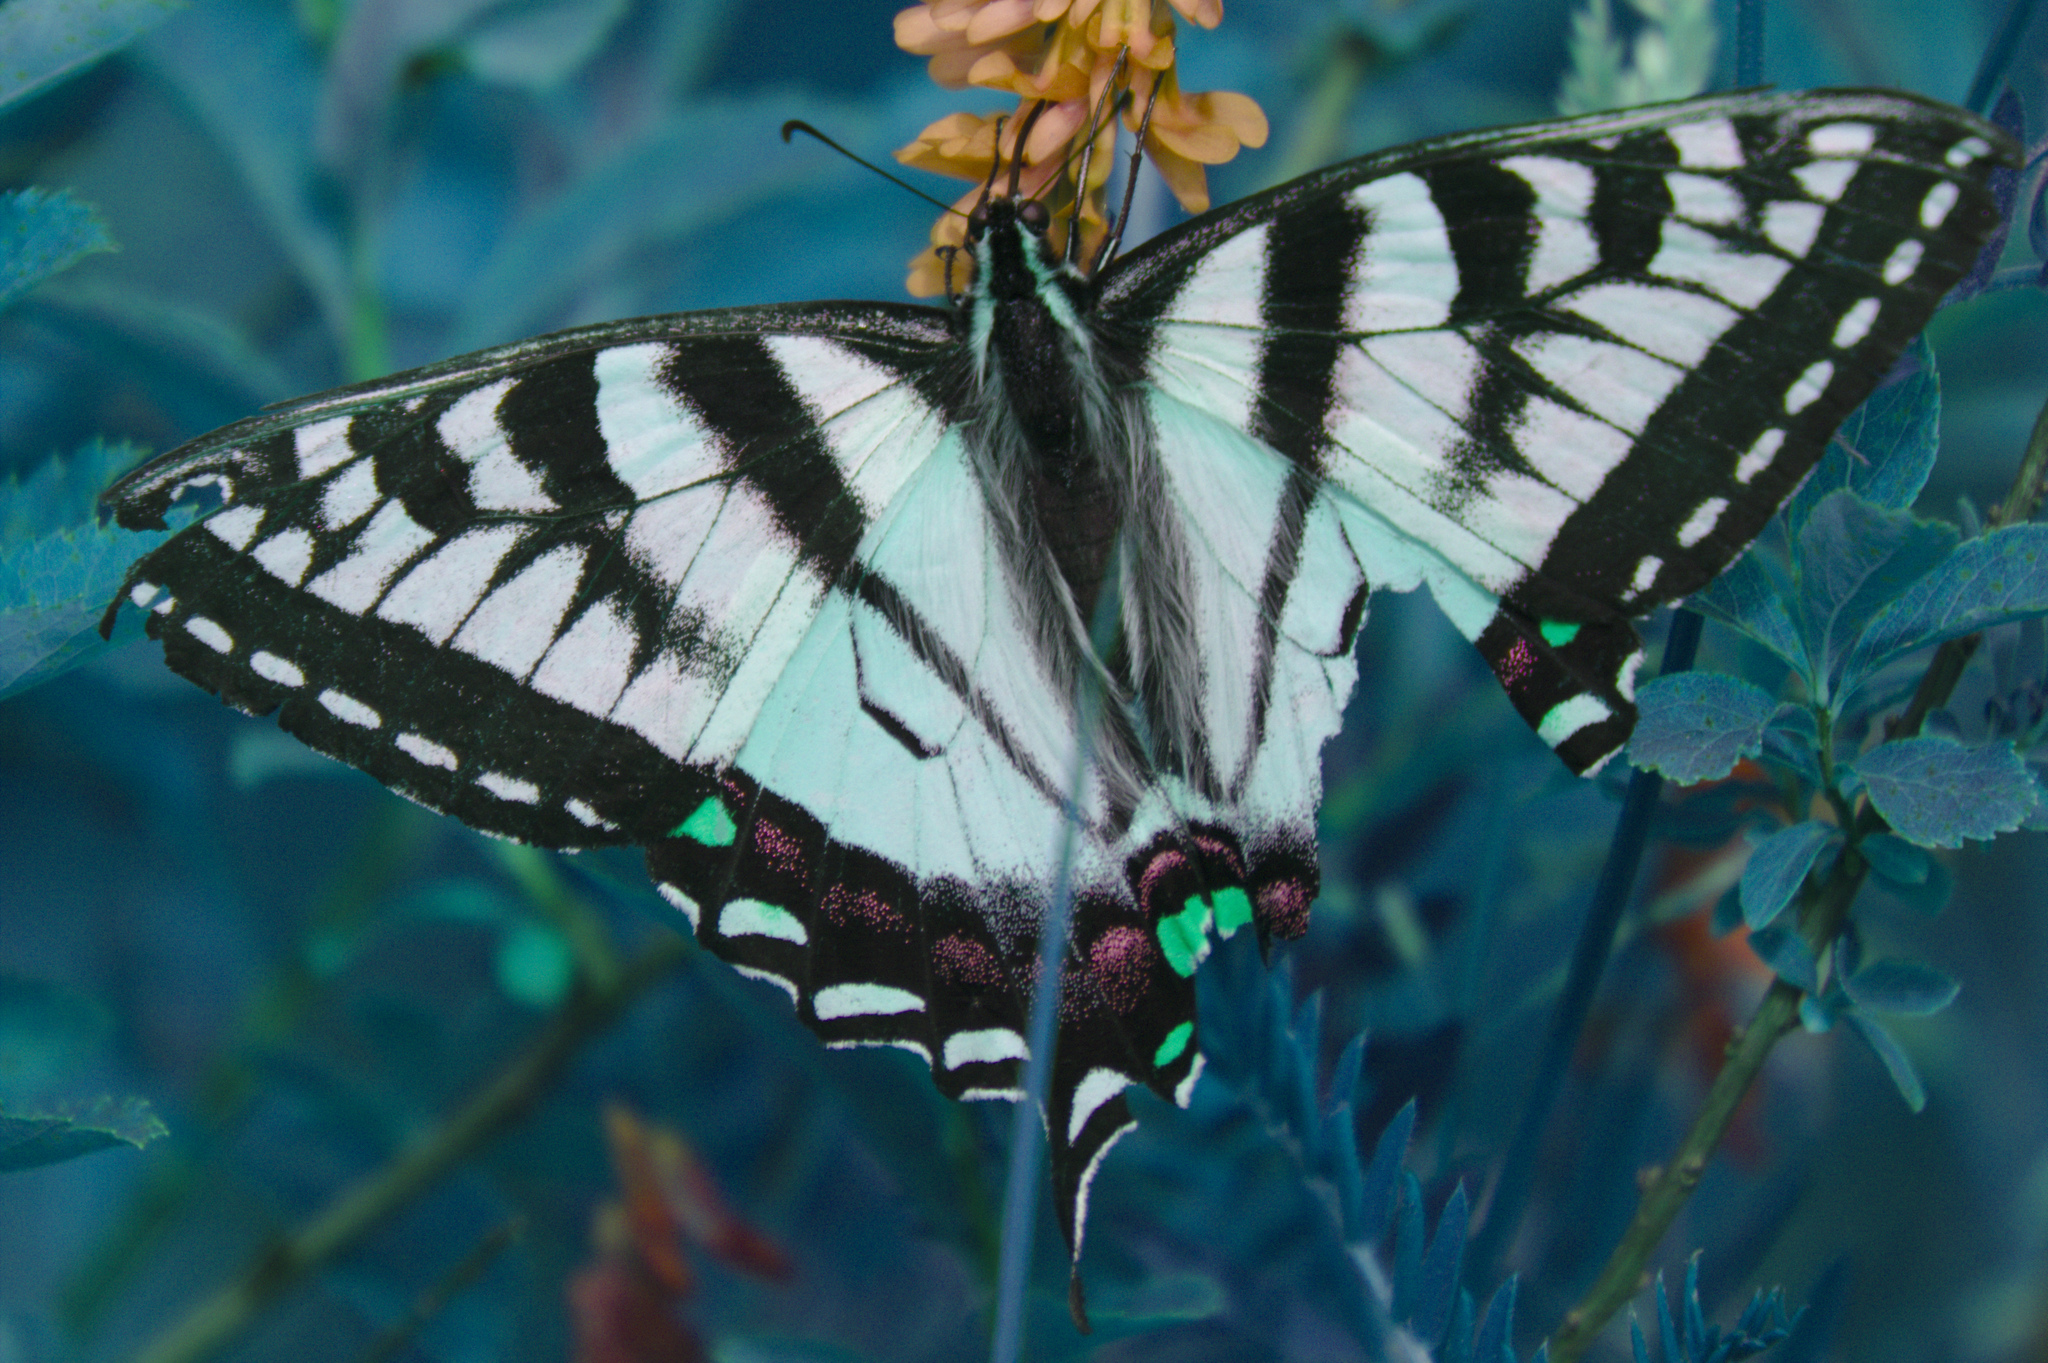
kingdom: Animalia
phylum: Arthropoda
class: Insecta
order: Lepidoptera
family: Papilionidae
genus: Papilio
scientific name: Papilio canadensis
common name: Canadian tiger swallowtail
